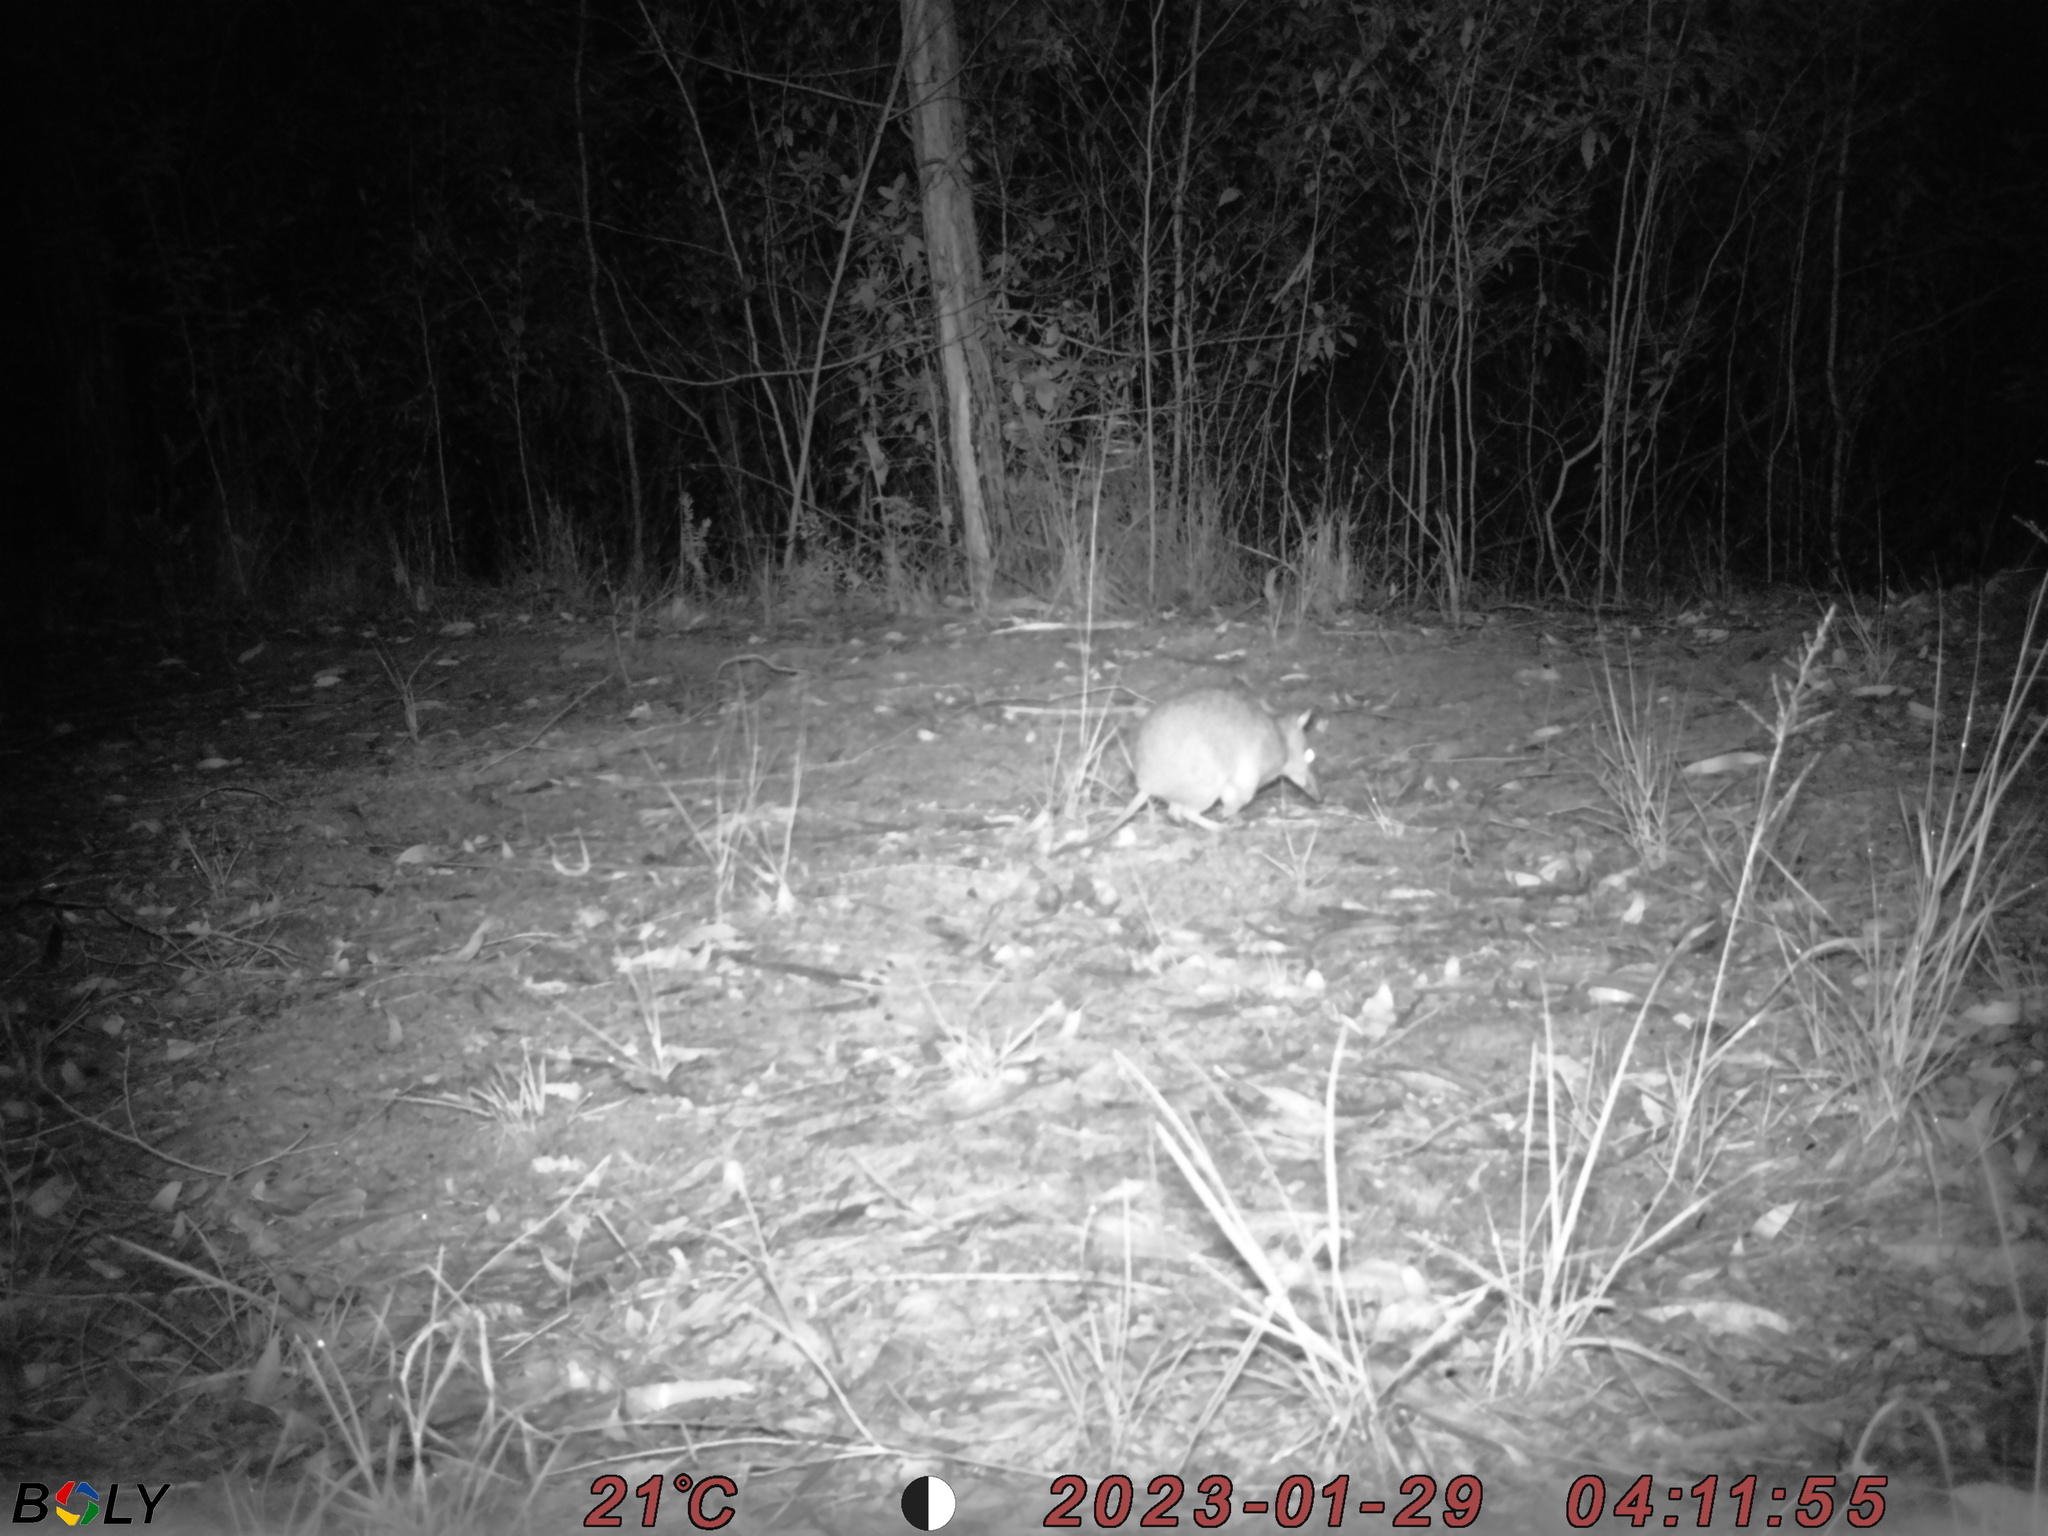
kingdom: Animalia
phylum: Chordata
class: Mammalia
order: Peramelemorphia
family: Peramelidae
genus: Perameles
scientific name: Perameles nasuta
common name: Long-nosed bandicoot
